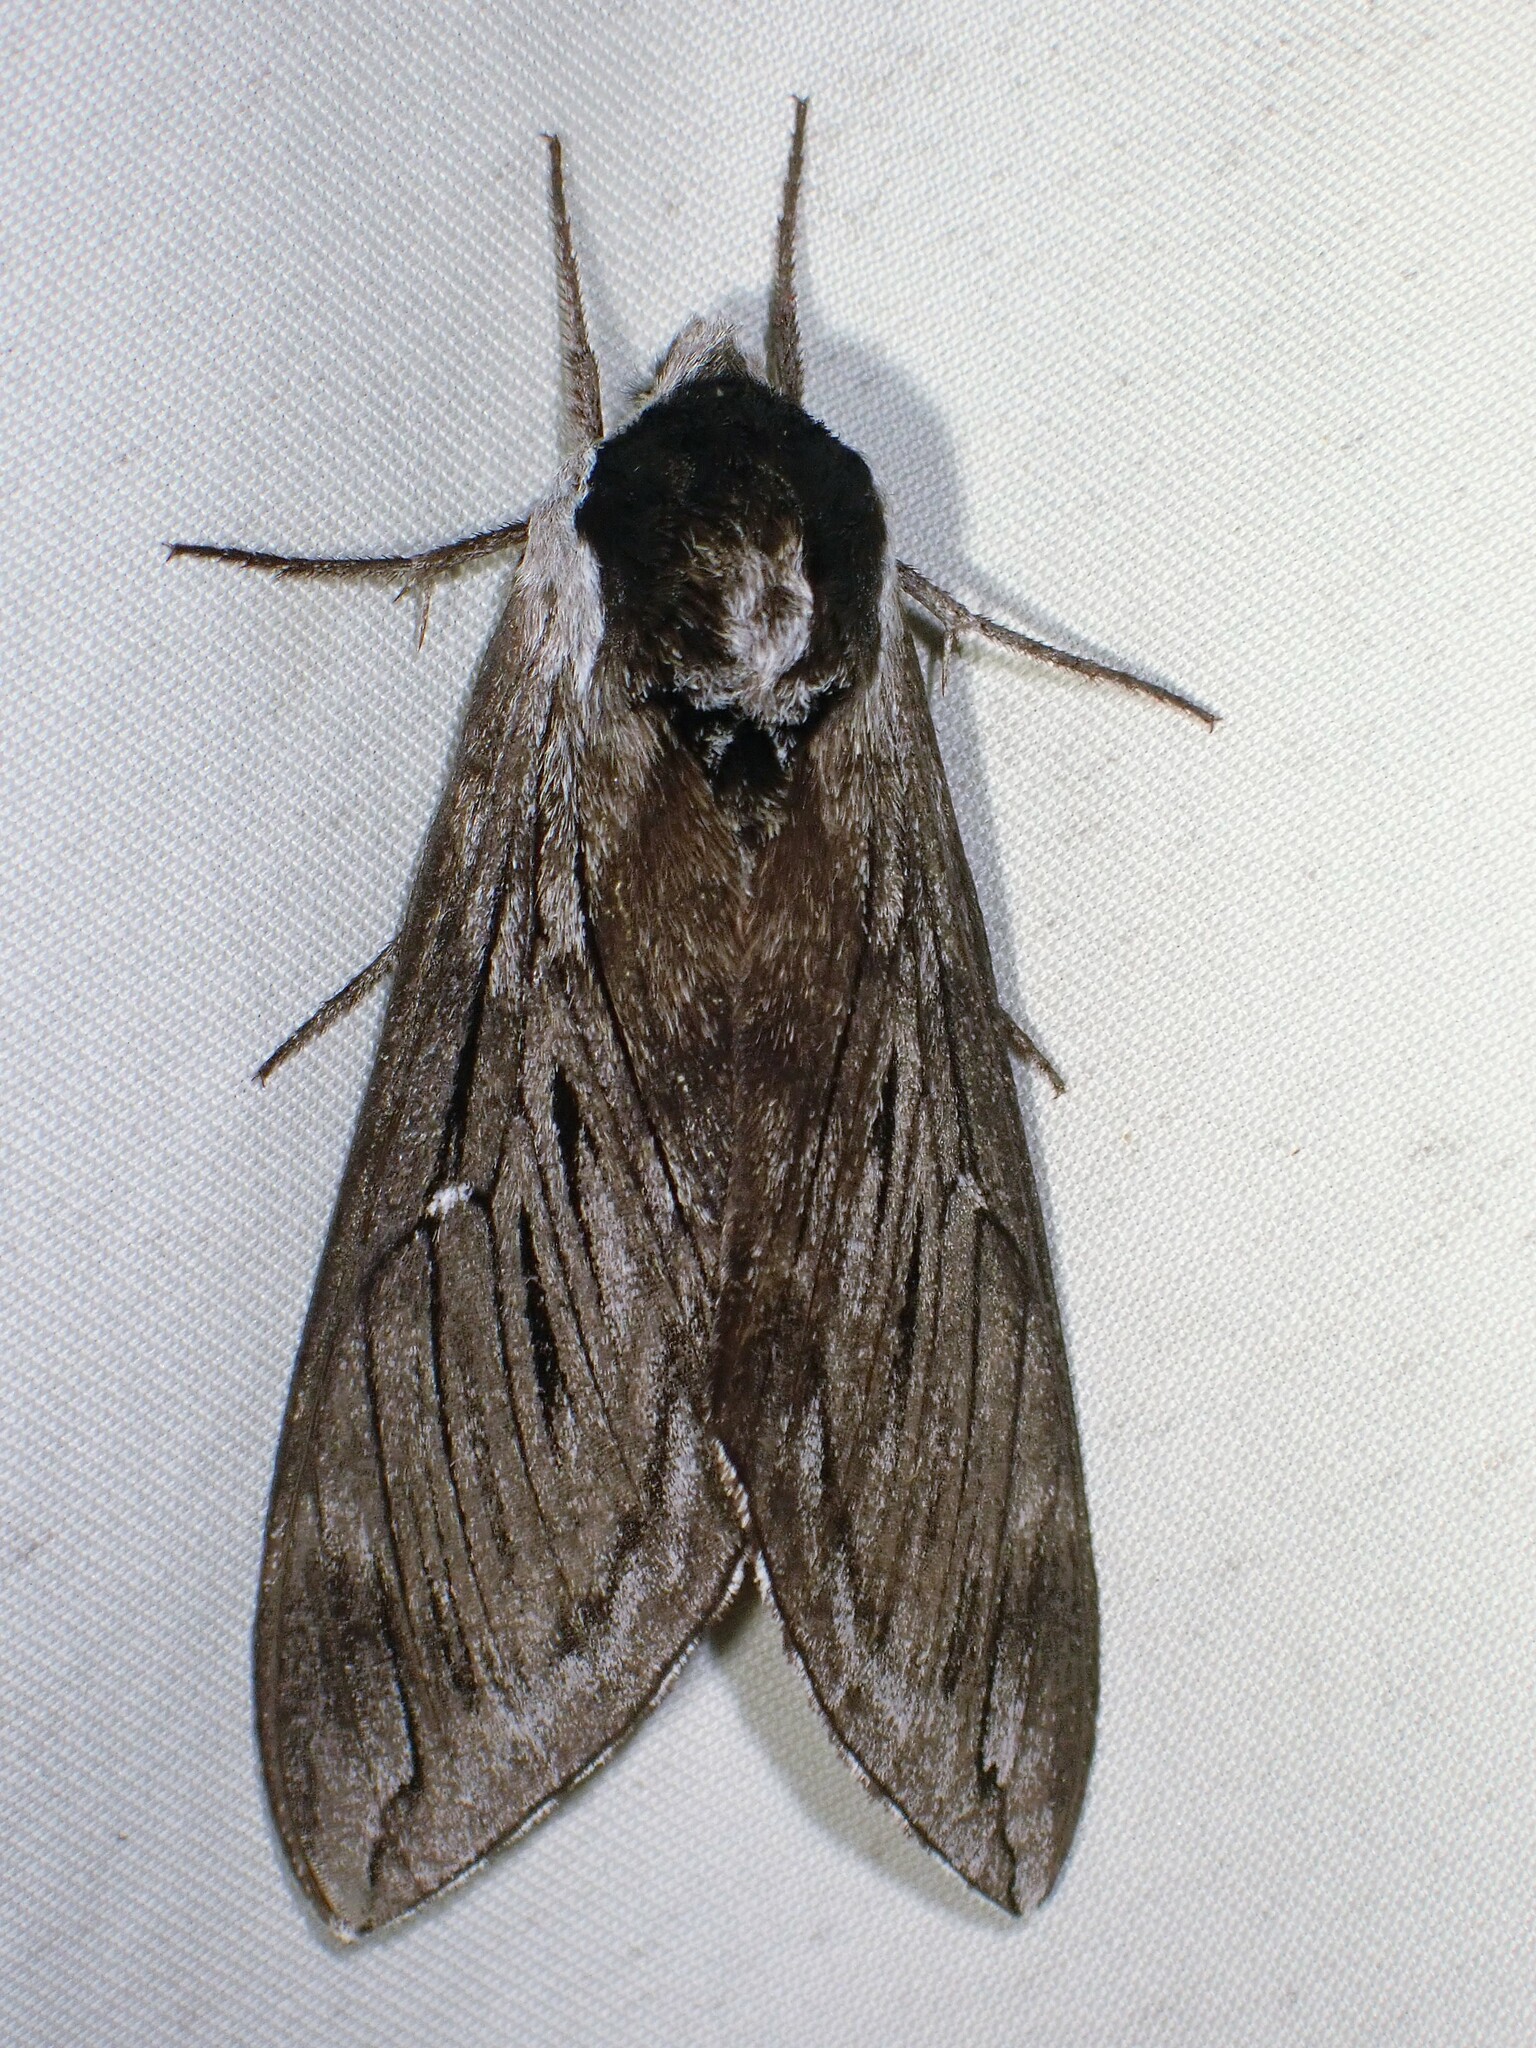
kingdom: Animalia
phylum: Arthropoda
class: Insecta
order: Lepidoptera
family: Sphingidae
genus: Sphinx
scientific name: Sphinx poecila
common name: Northern apple sphinx
